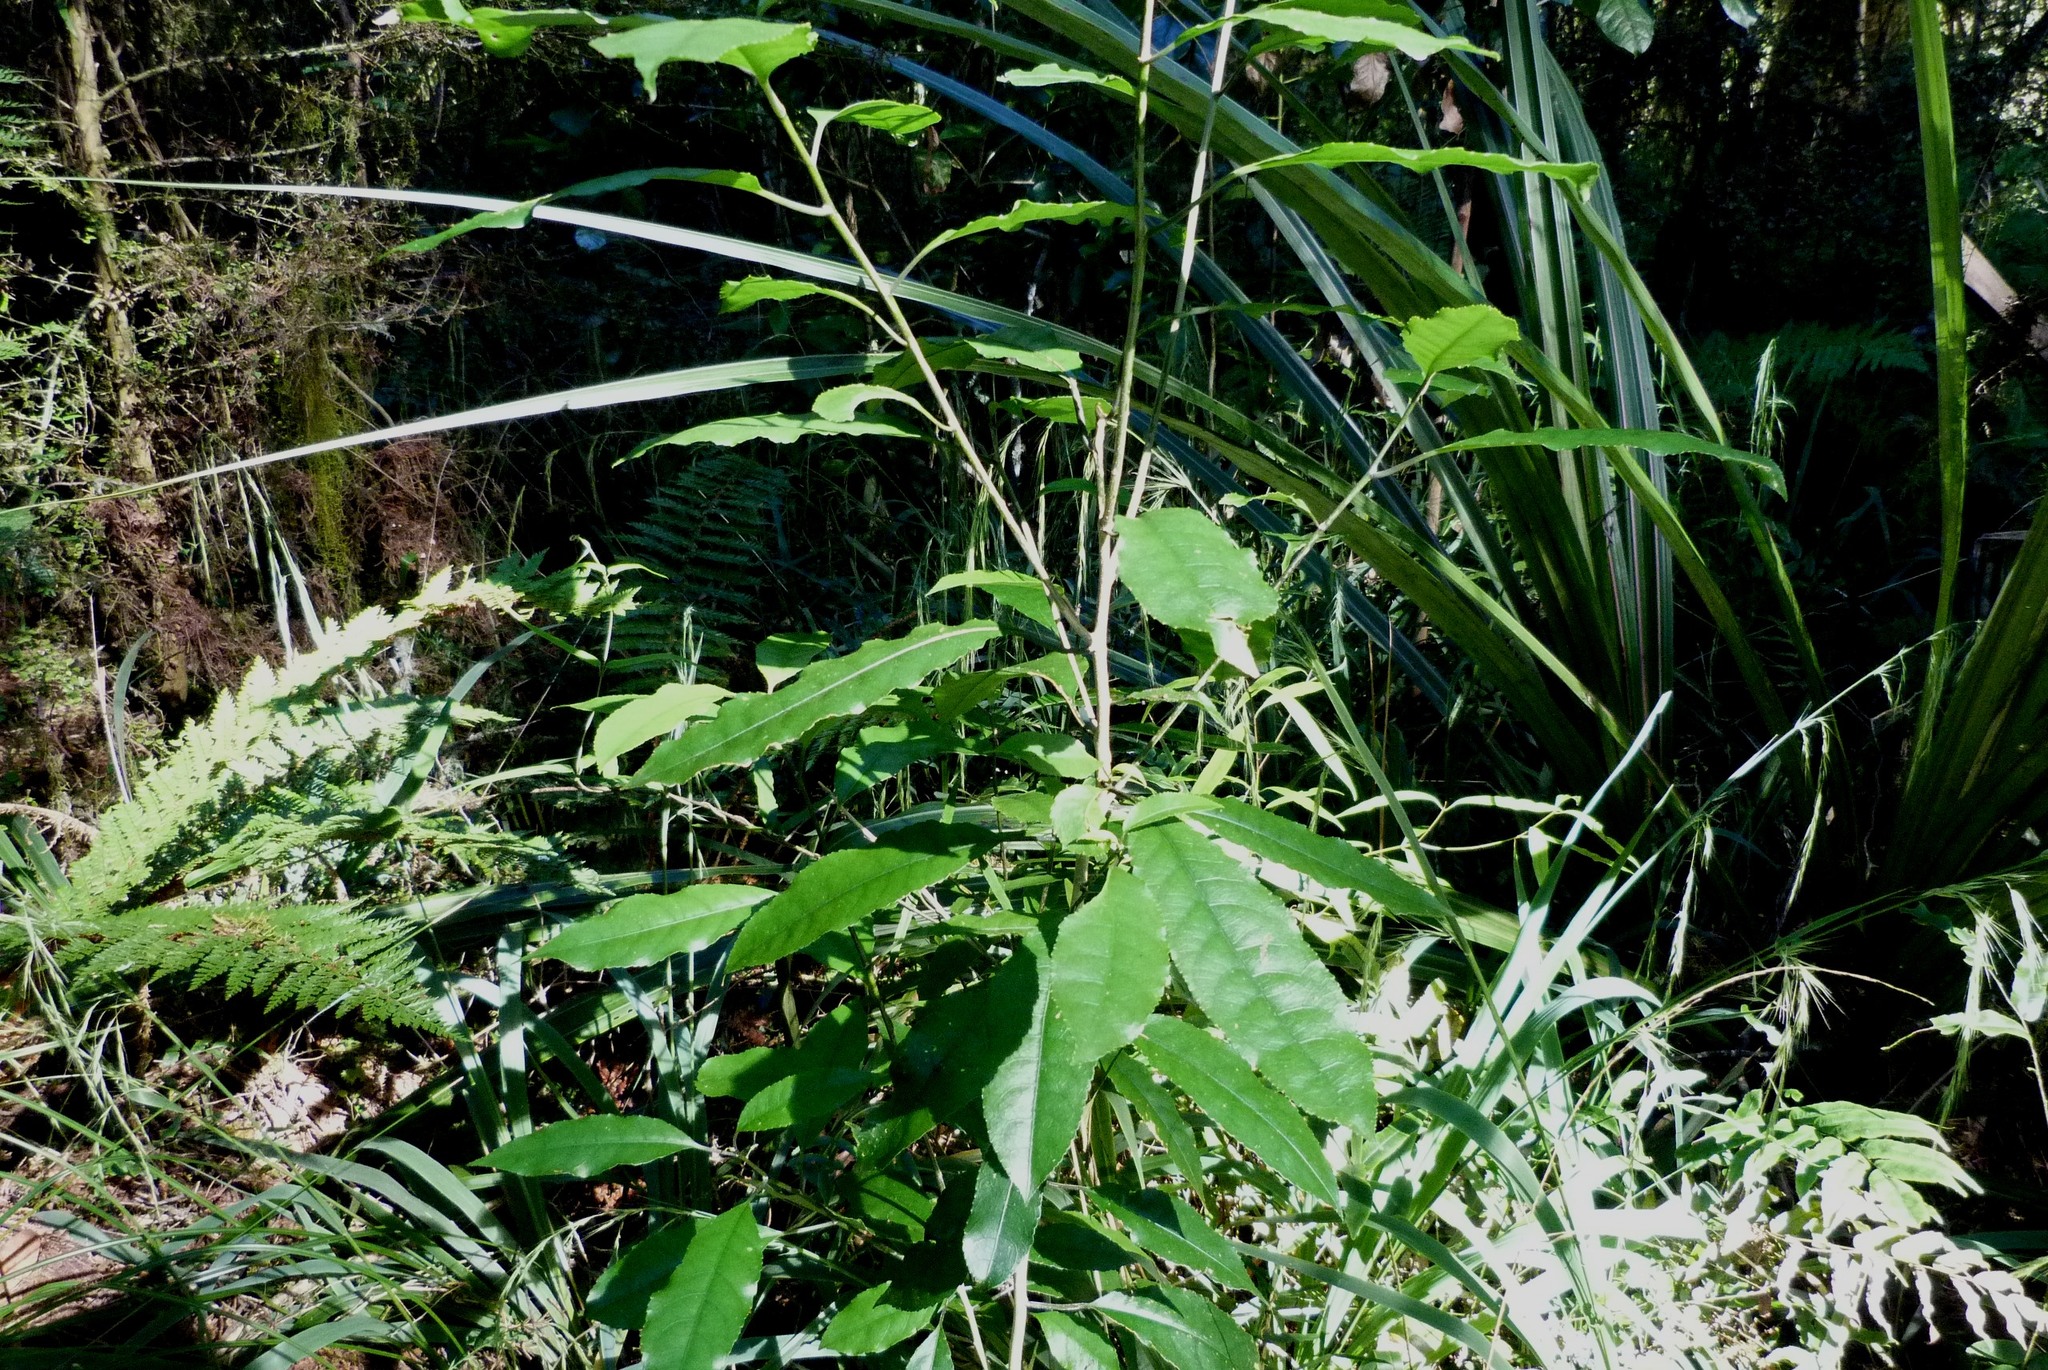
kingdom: Plantae
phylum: Tracheophyta
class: Magnoliopsida
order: Malpighiales
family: Violaceae
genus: Melicytus
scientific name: Melicytus ramiflorus
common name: Mahoe
